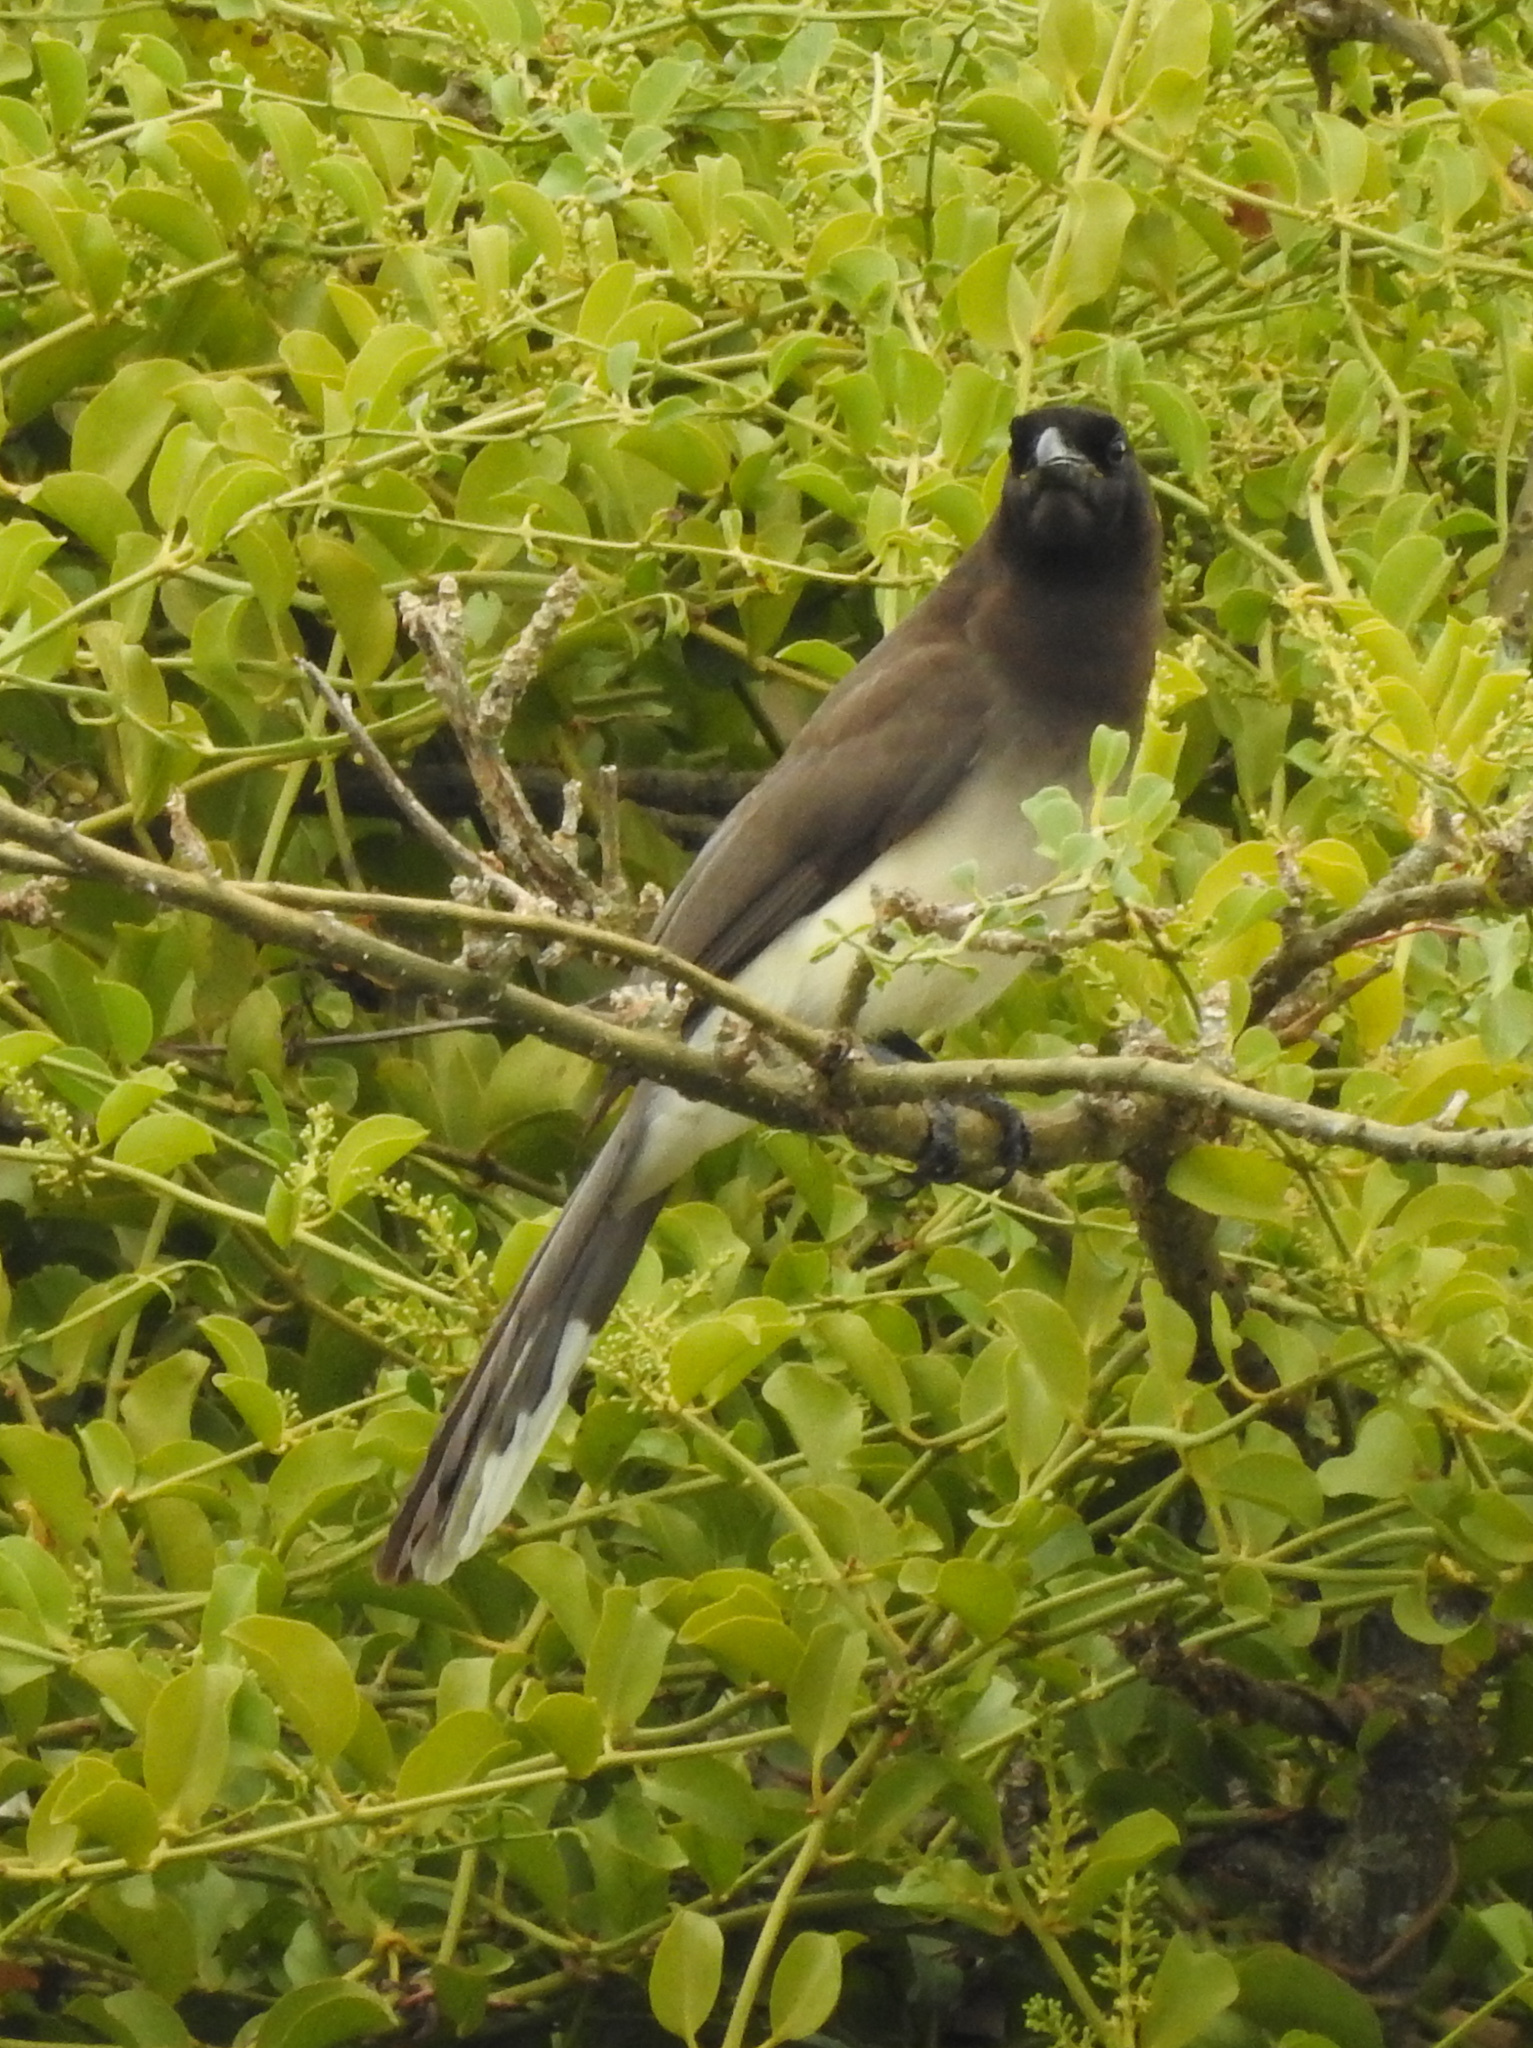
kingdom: Animalia
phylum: Chordata
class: Aves
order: Passeriformes
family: Corvidae
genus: Psilorhinus
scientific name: Psilorhinus morio
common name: Brown jay
